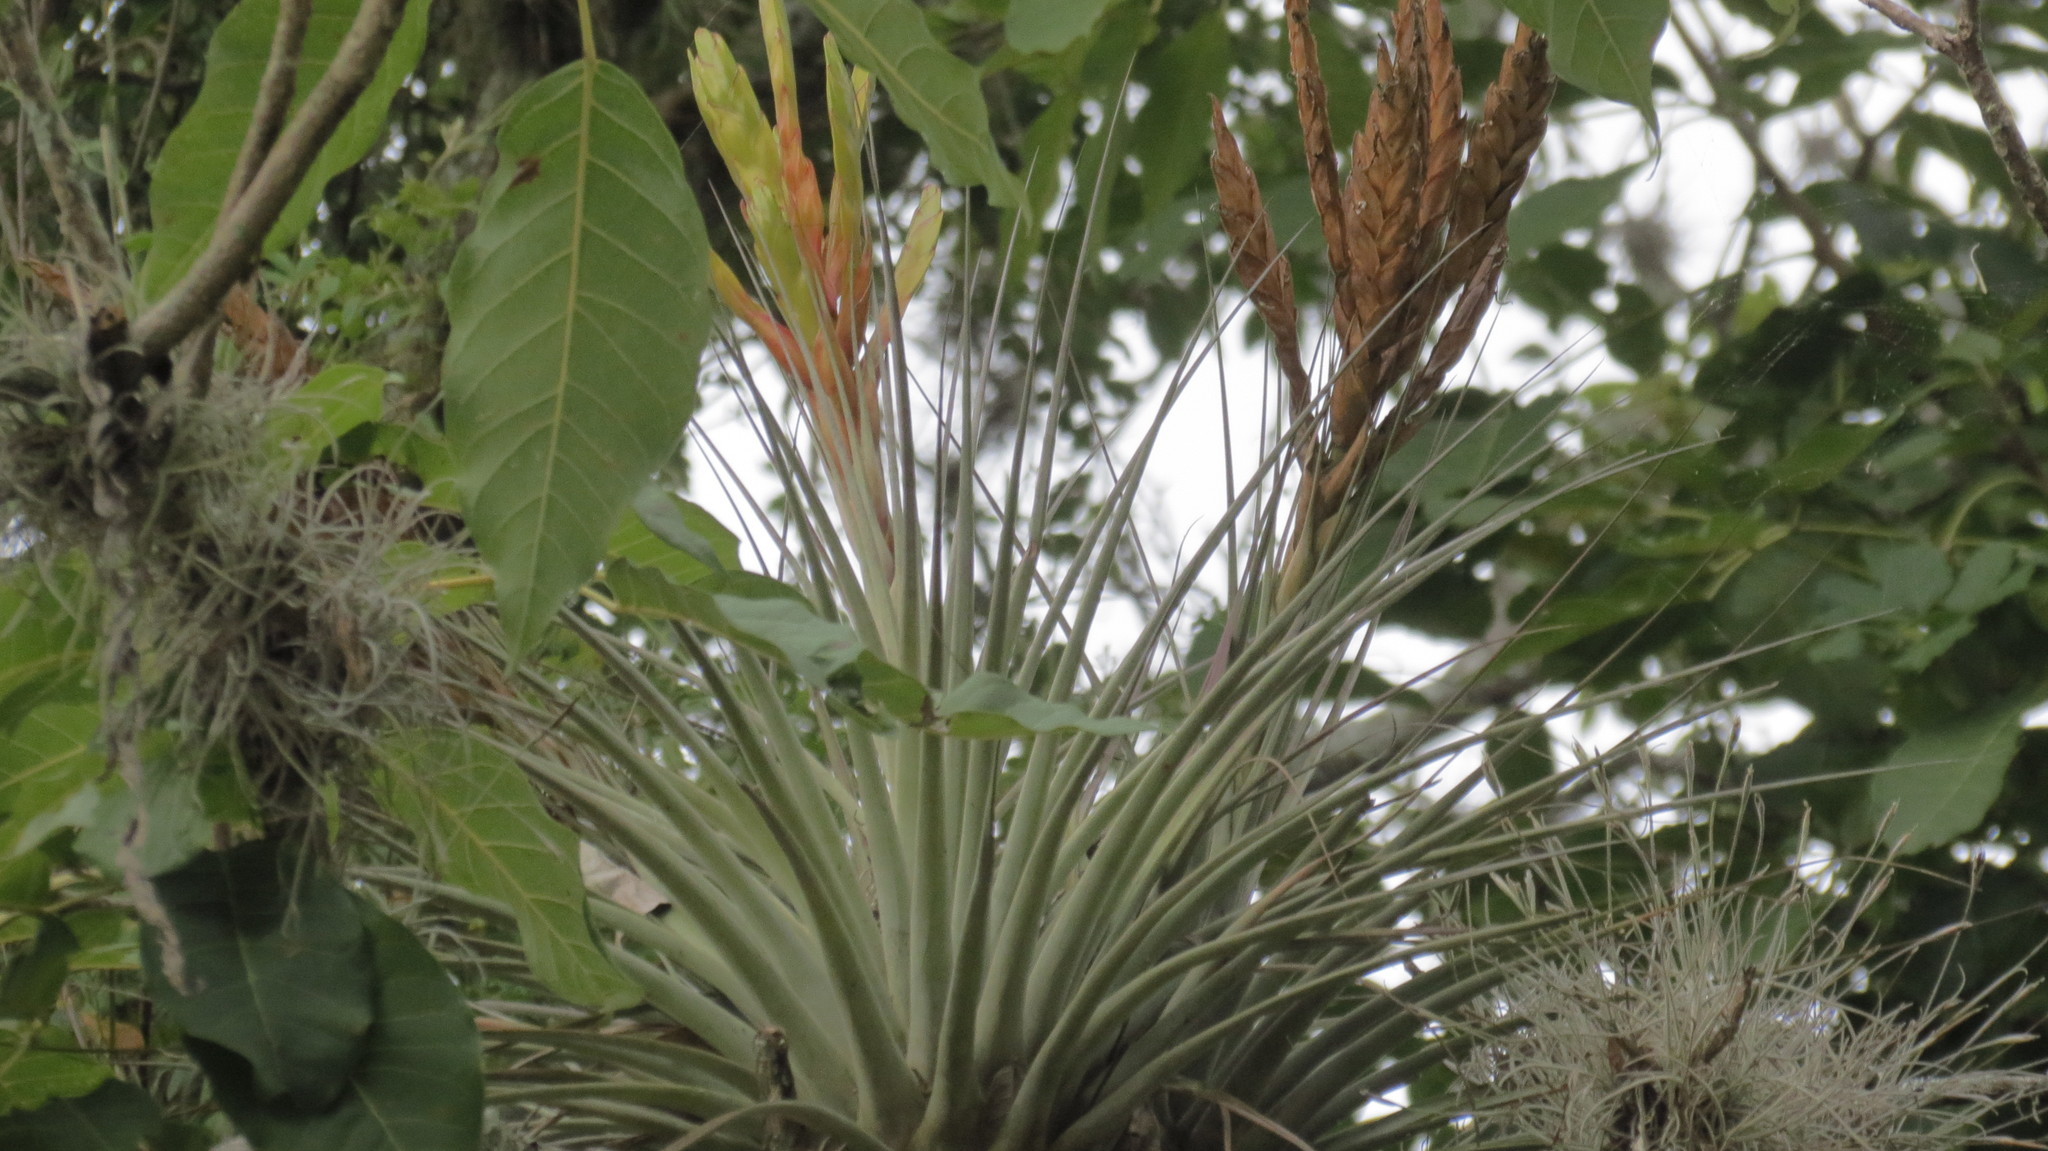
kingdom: Plantae
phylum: Tracheophyta
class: Liliopsida
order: Poales
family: Bromeliaceae
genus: Tillandsia
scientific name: Tillandsia fasciculata
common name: Giant airplant
